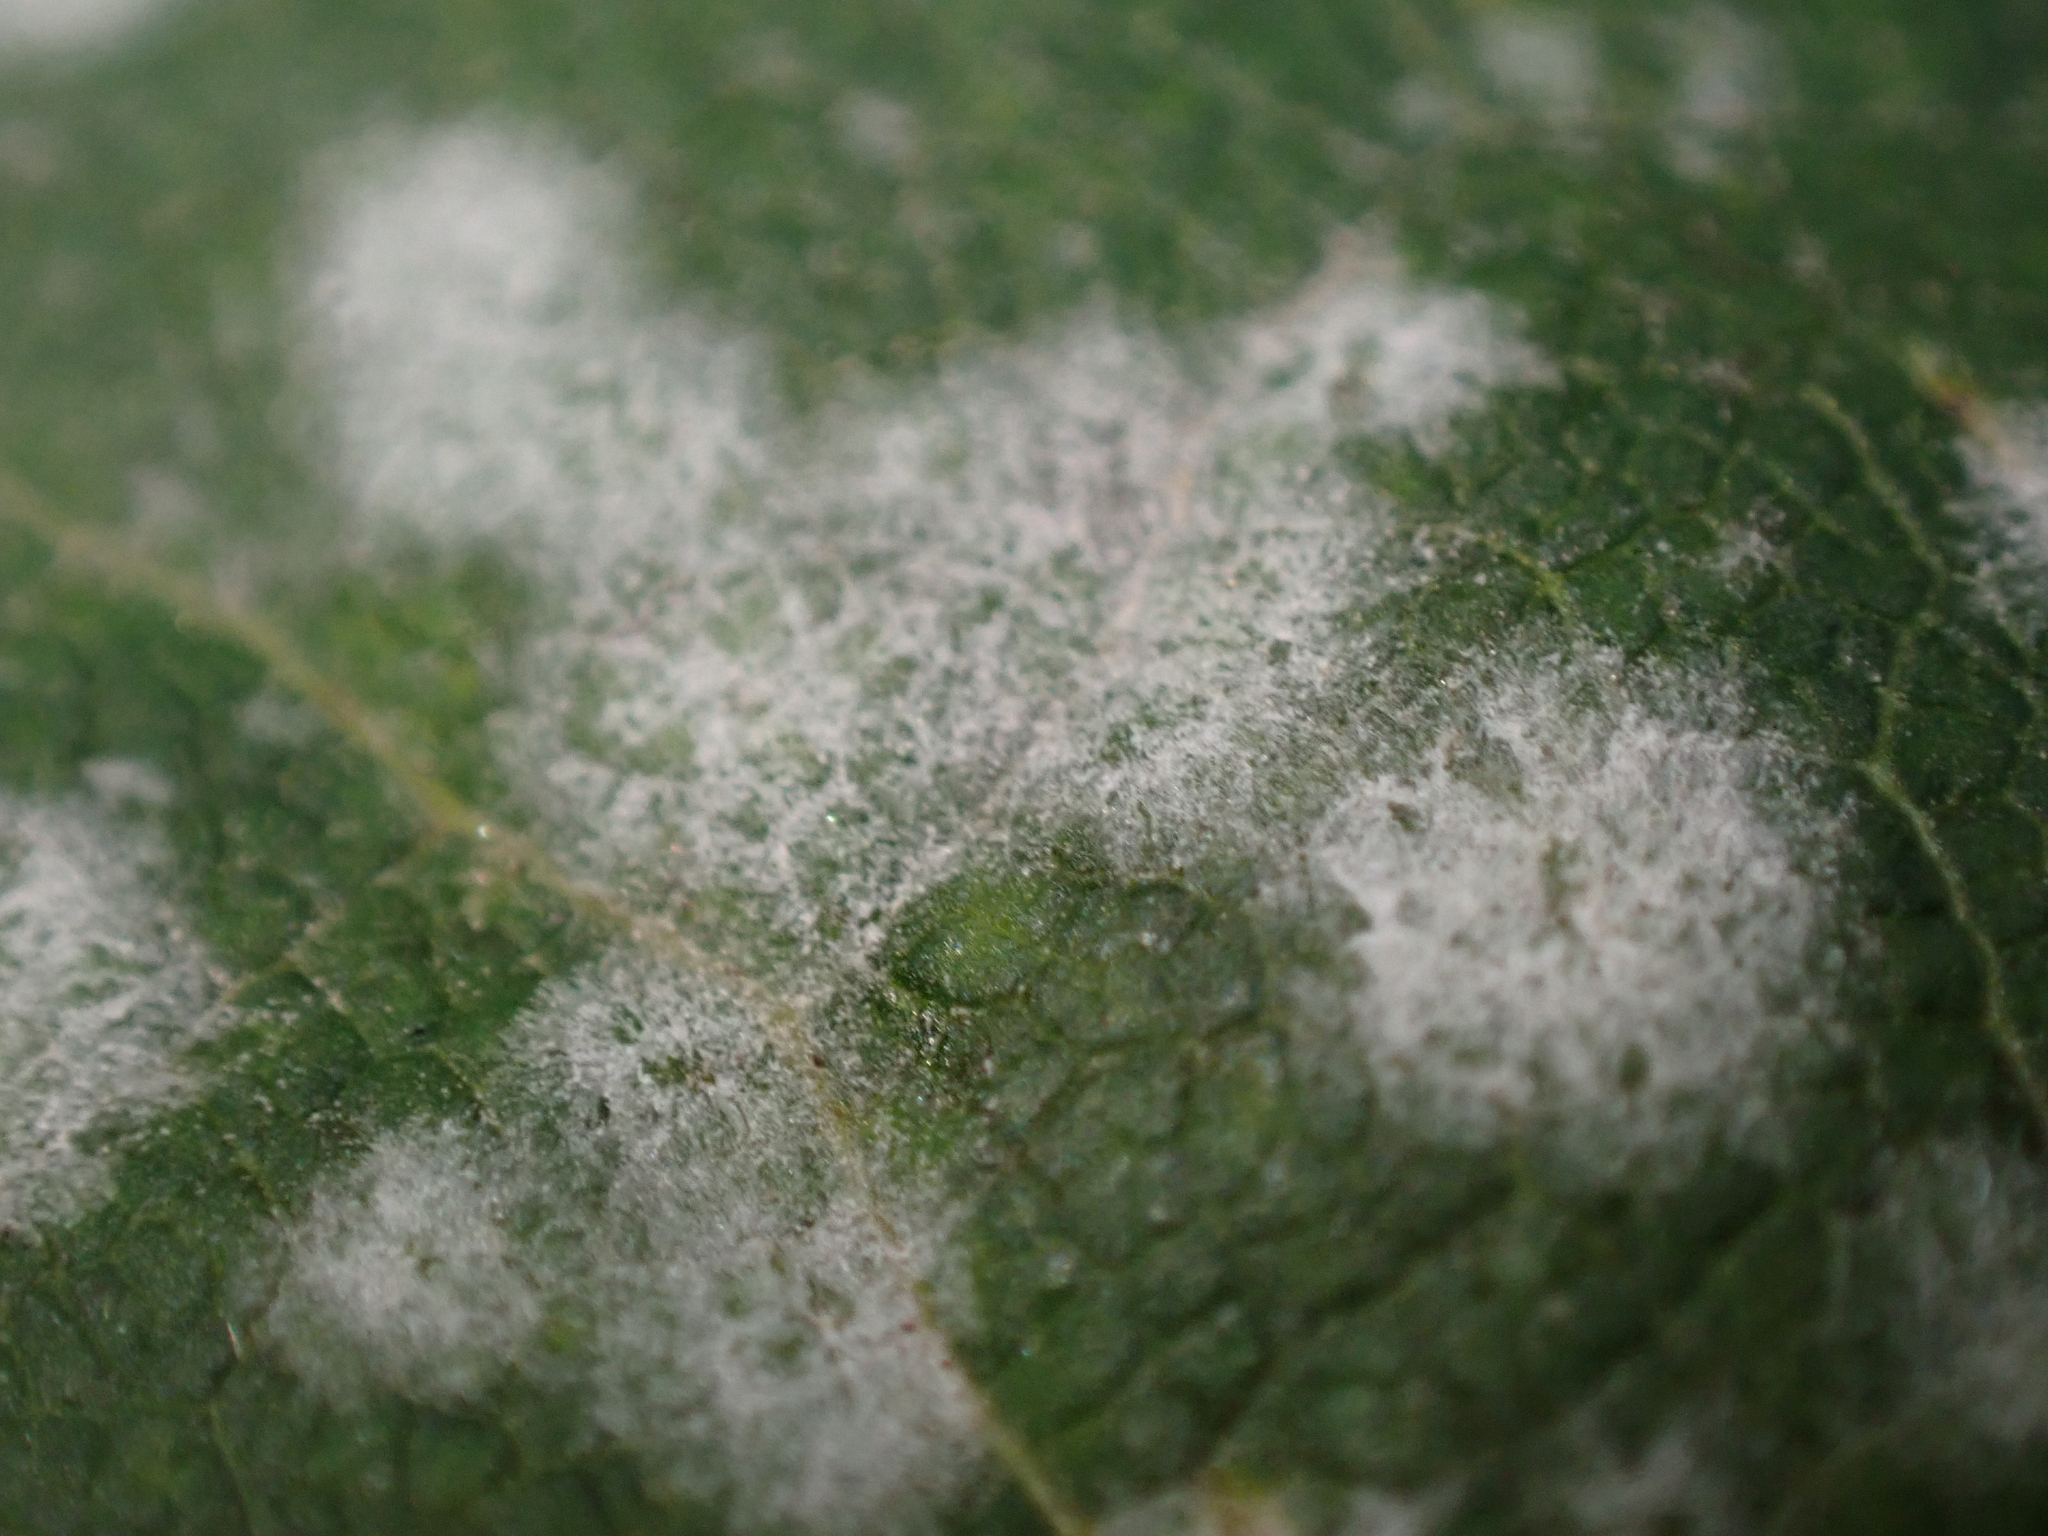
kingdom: Fungi
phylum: Ascomycota
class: Leotiomycetes
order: Helotiales
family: Erysiphaceae
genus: Sawadaea
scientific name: Sawadaea tulasnei
